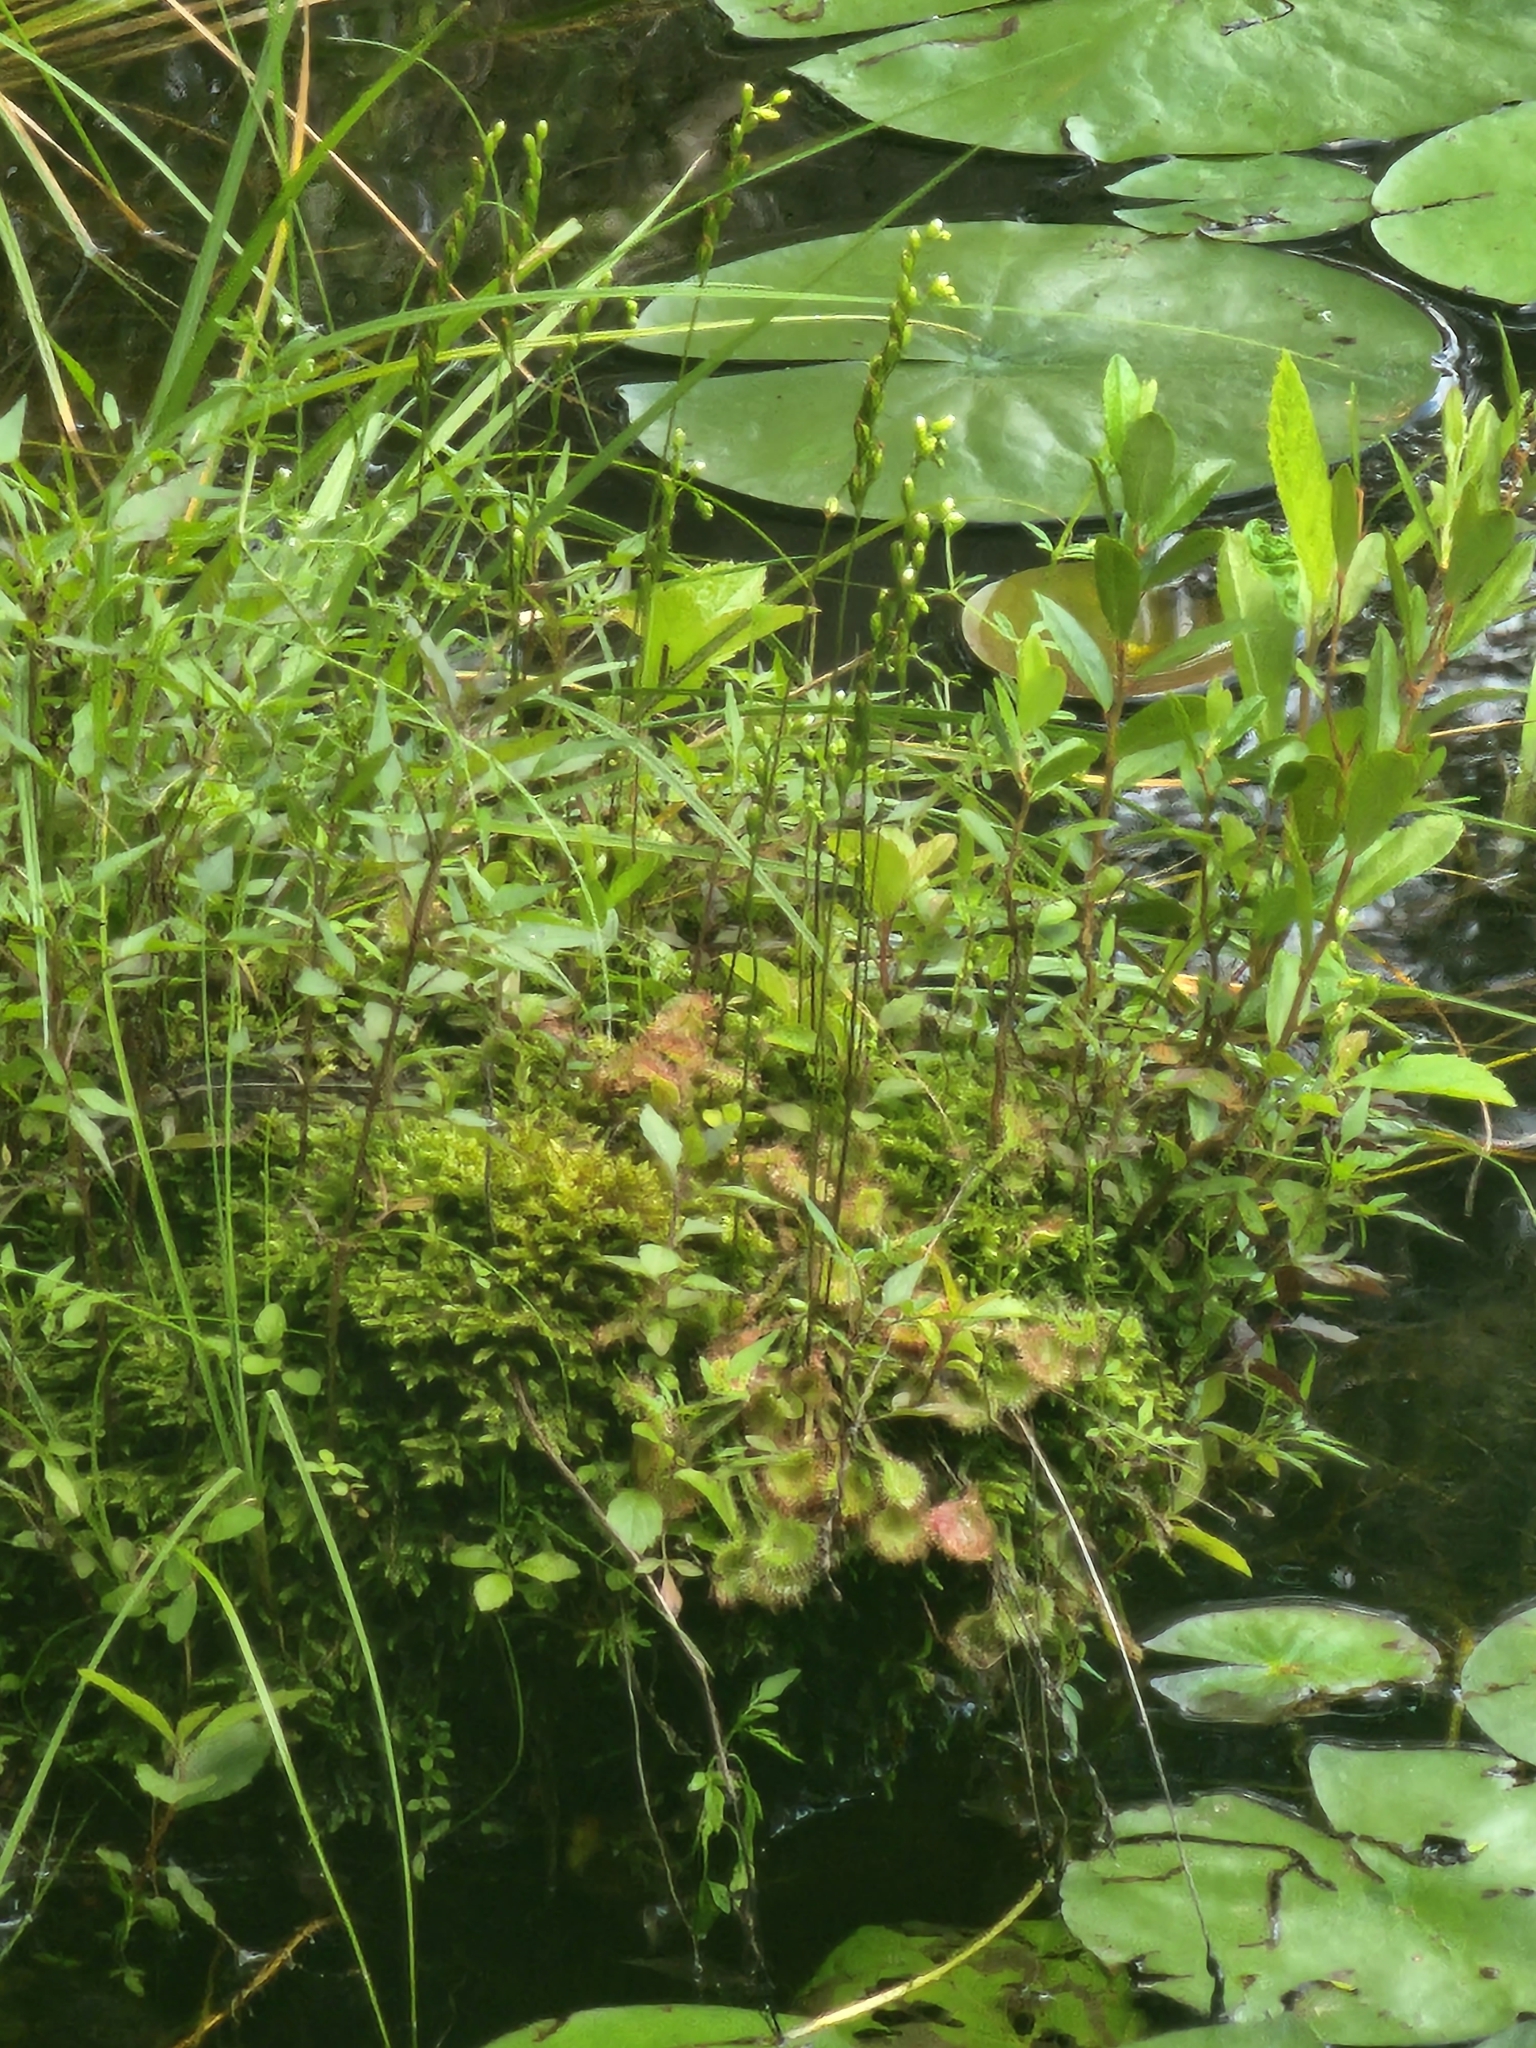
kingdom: Plantae
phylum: Tracheophyta
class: Magnoliopsida
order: Caryophyllales
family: Droseraceae
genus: Drosera
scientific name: Drosera rotundifolia
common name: Round-leaved sundew
